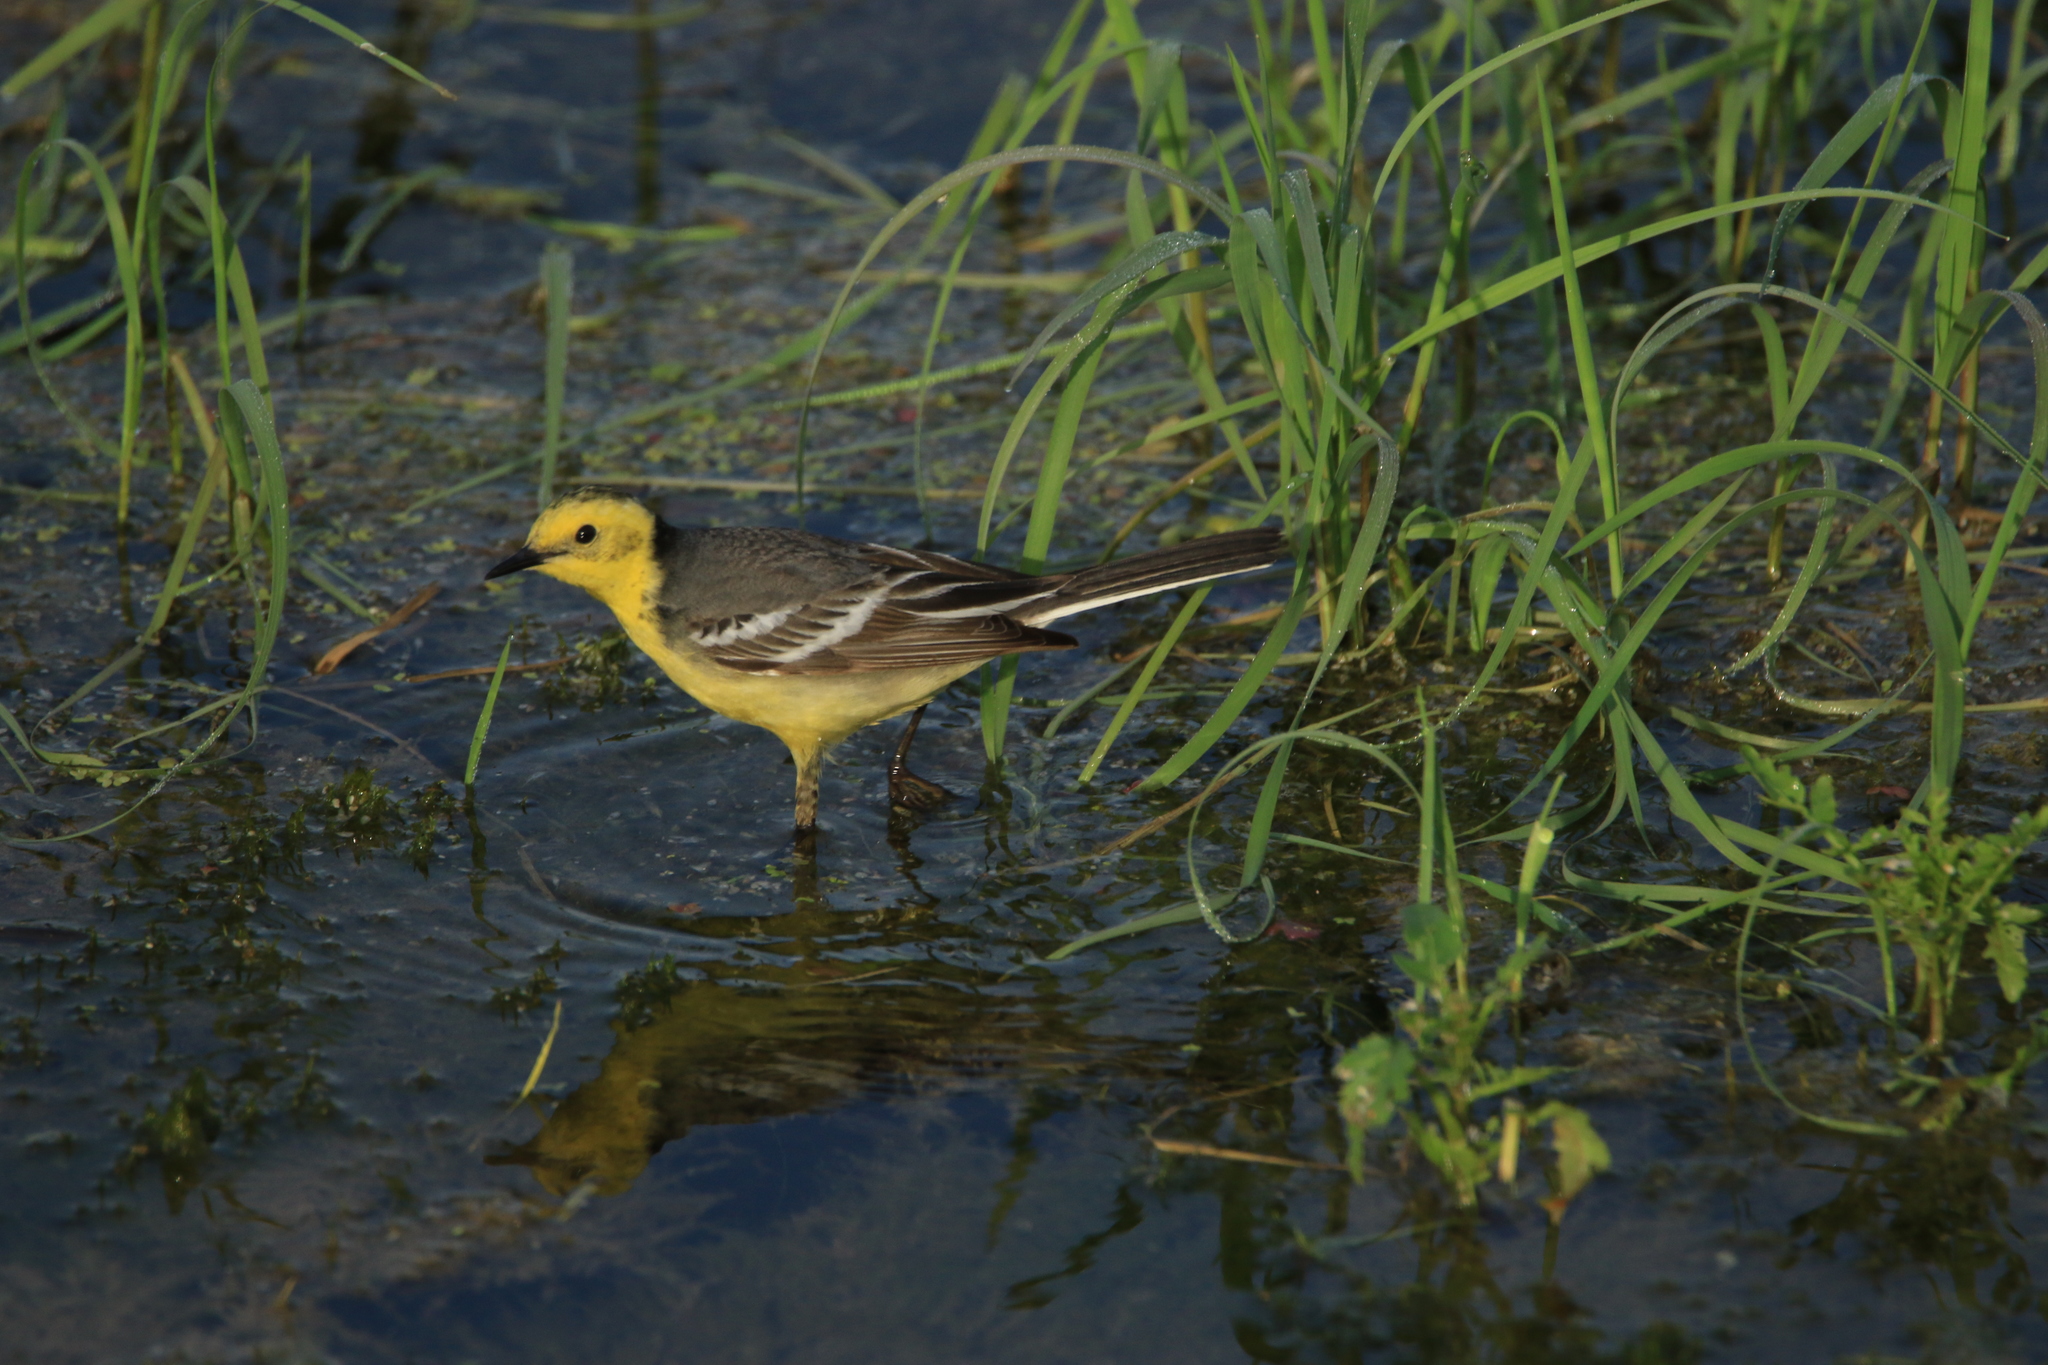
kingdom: Animalia
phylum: Chordata
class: Aves
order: Passeriformes
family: Motacillidae
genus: Motacilla
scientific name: Motacilla citreola
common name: Citrine wagtail
